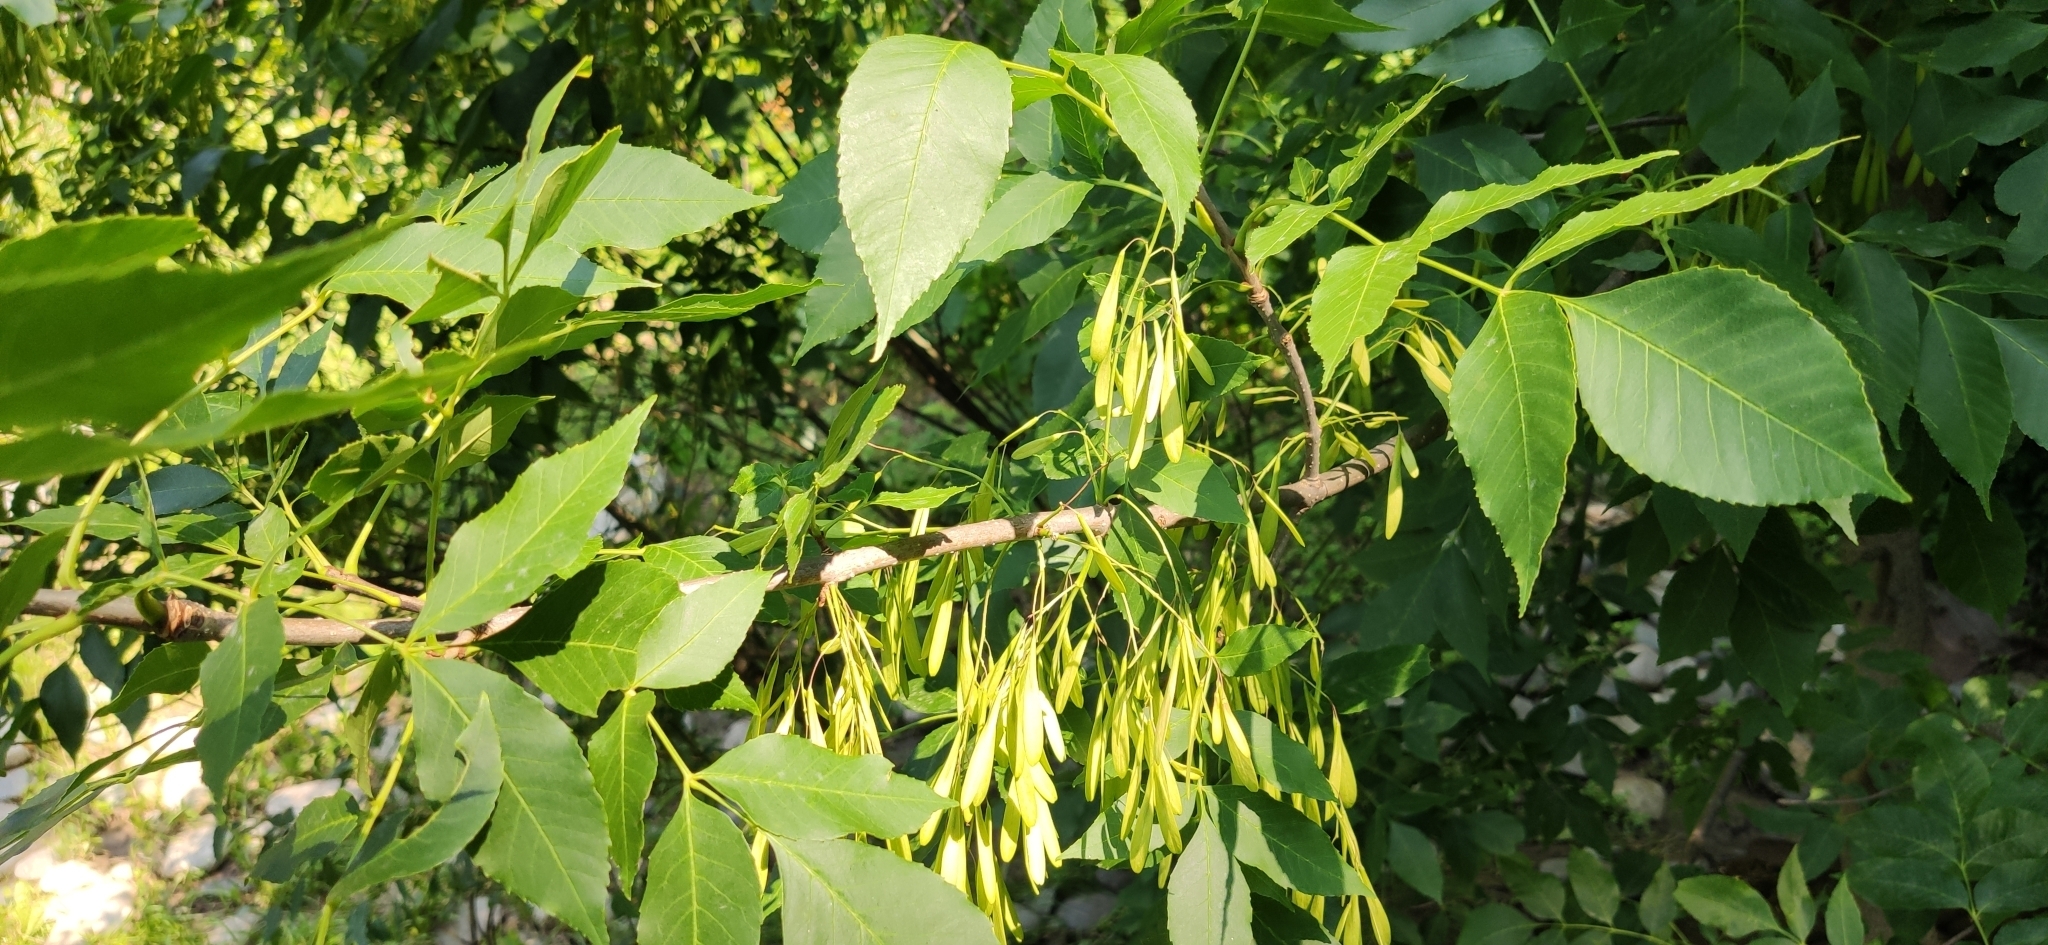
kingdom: Plantae
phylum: Tracheophyta
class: Magnoliopsida
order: Lamiales
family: Oleaceae
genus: Fraxinus
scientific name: Fraxinus pennsylvanica
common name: Green ash
